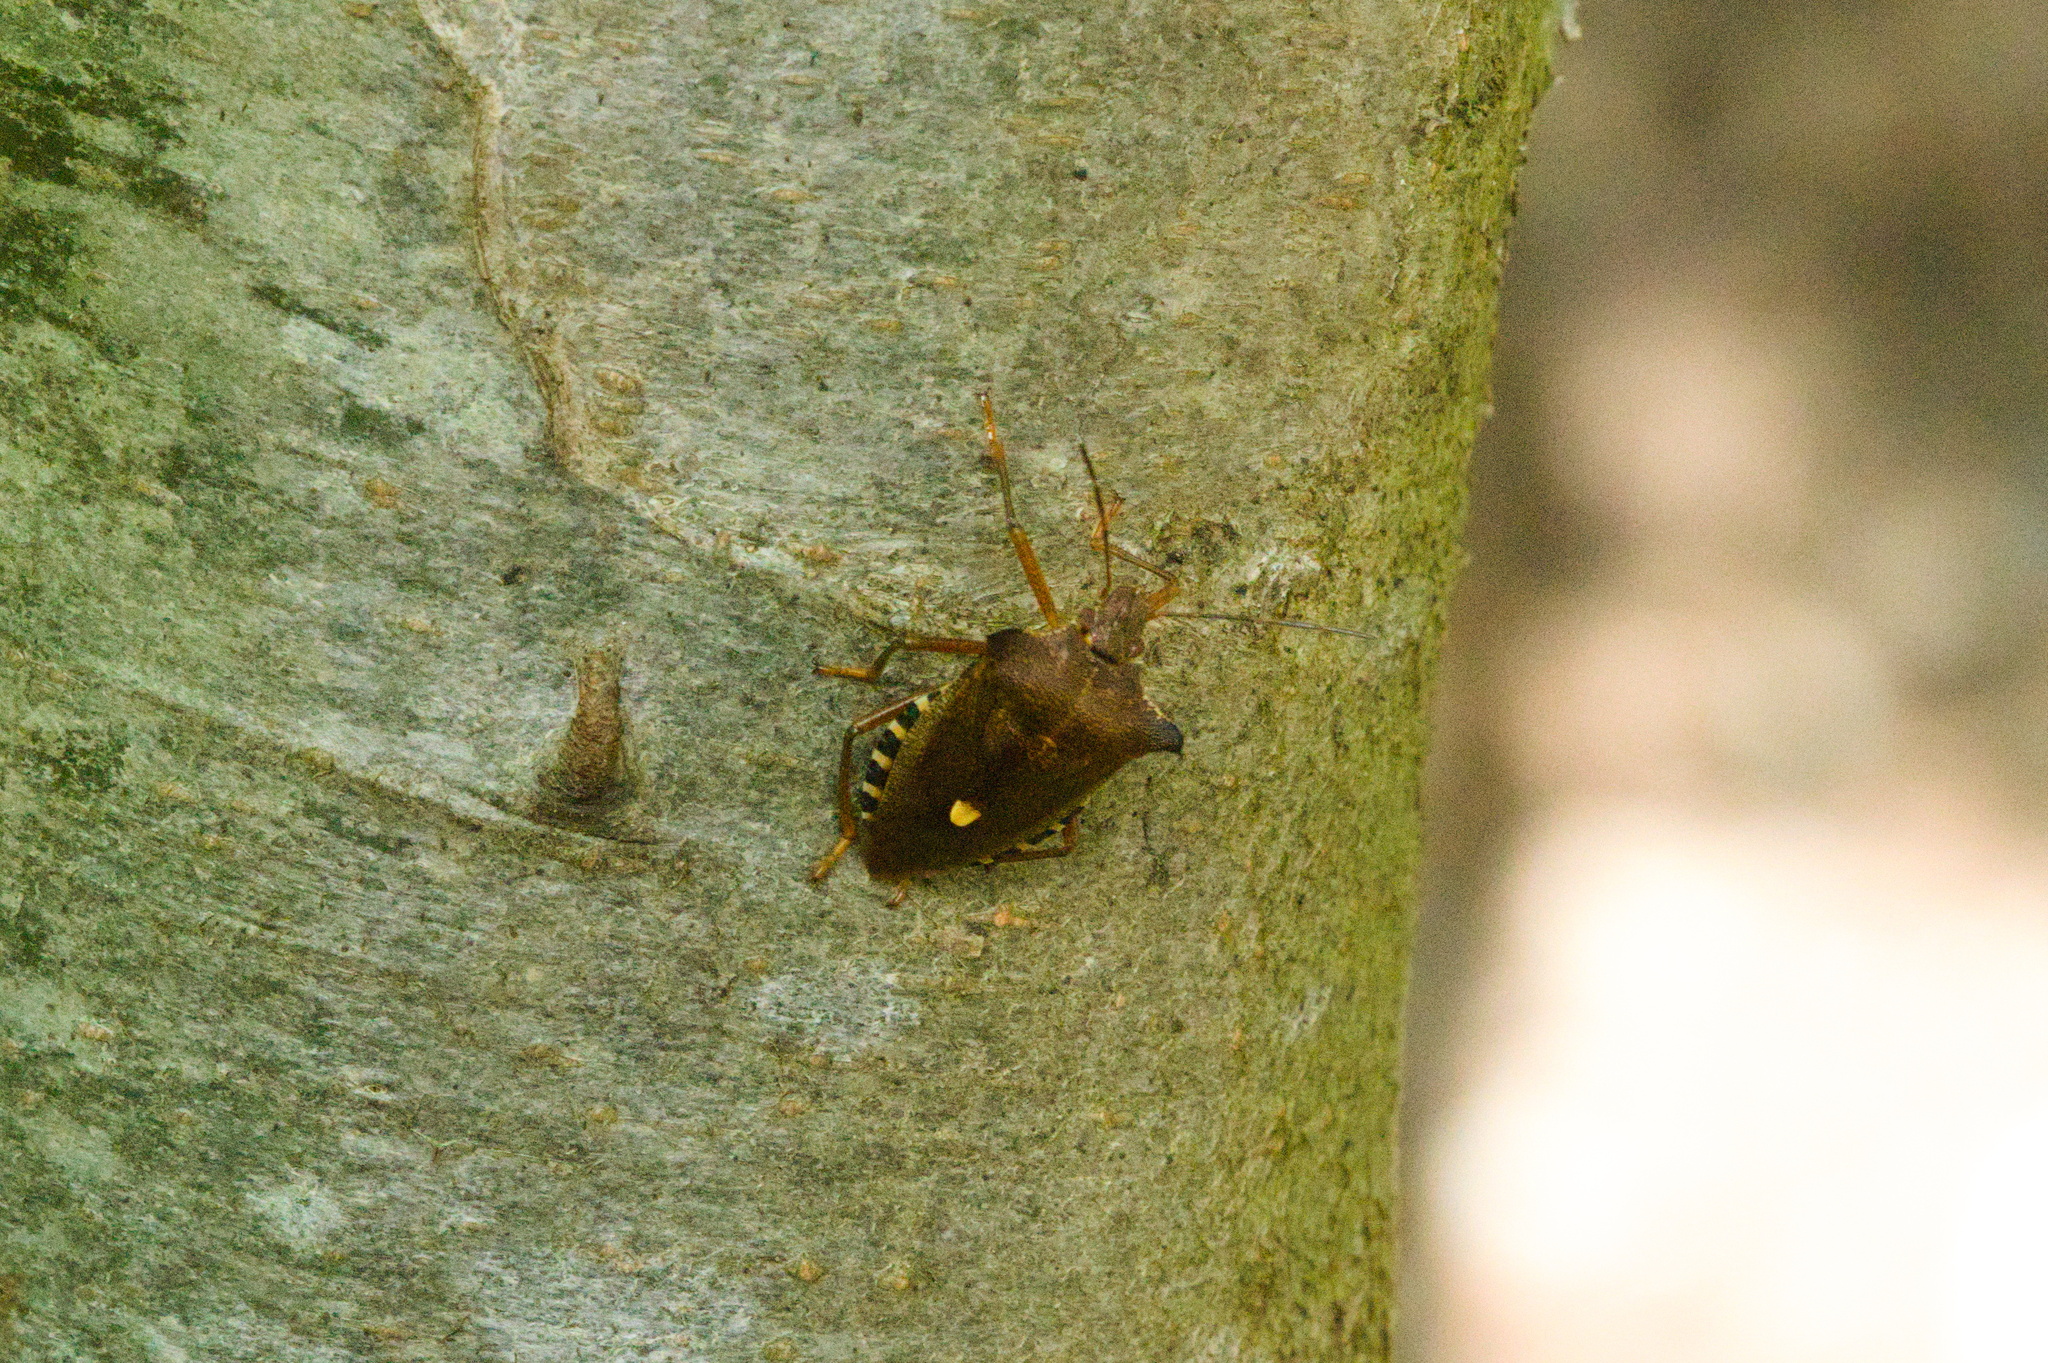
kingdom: Animalia
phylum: Arthropoda
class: Insecta
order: Hemiptera
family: Pentatomidae
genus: Pentatoma
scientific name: Pentatoma rufipes
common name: Forest bug
